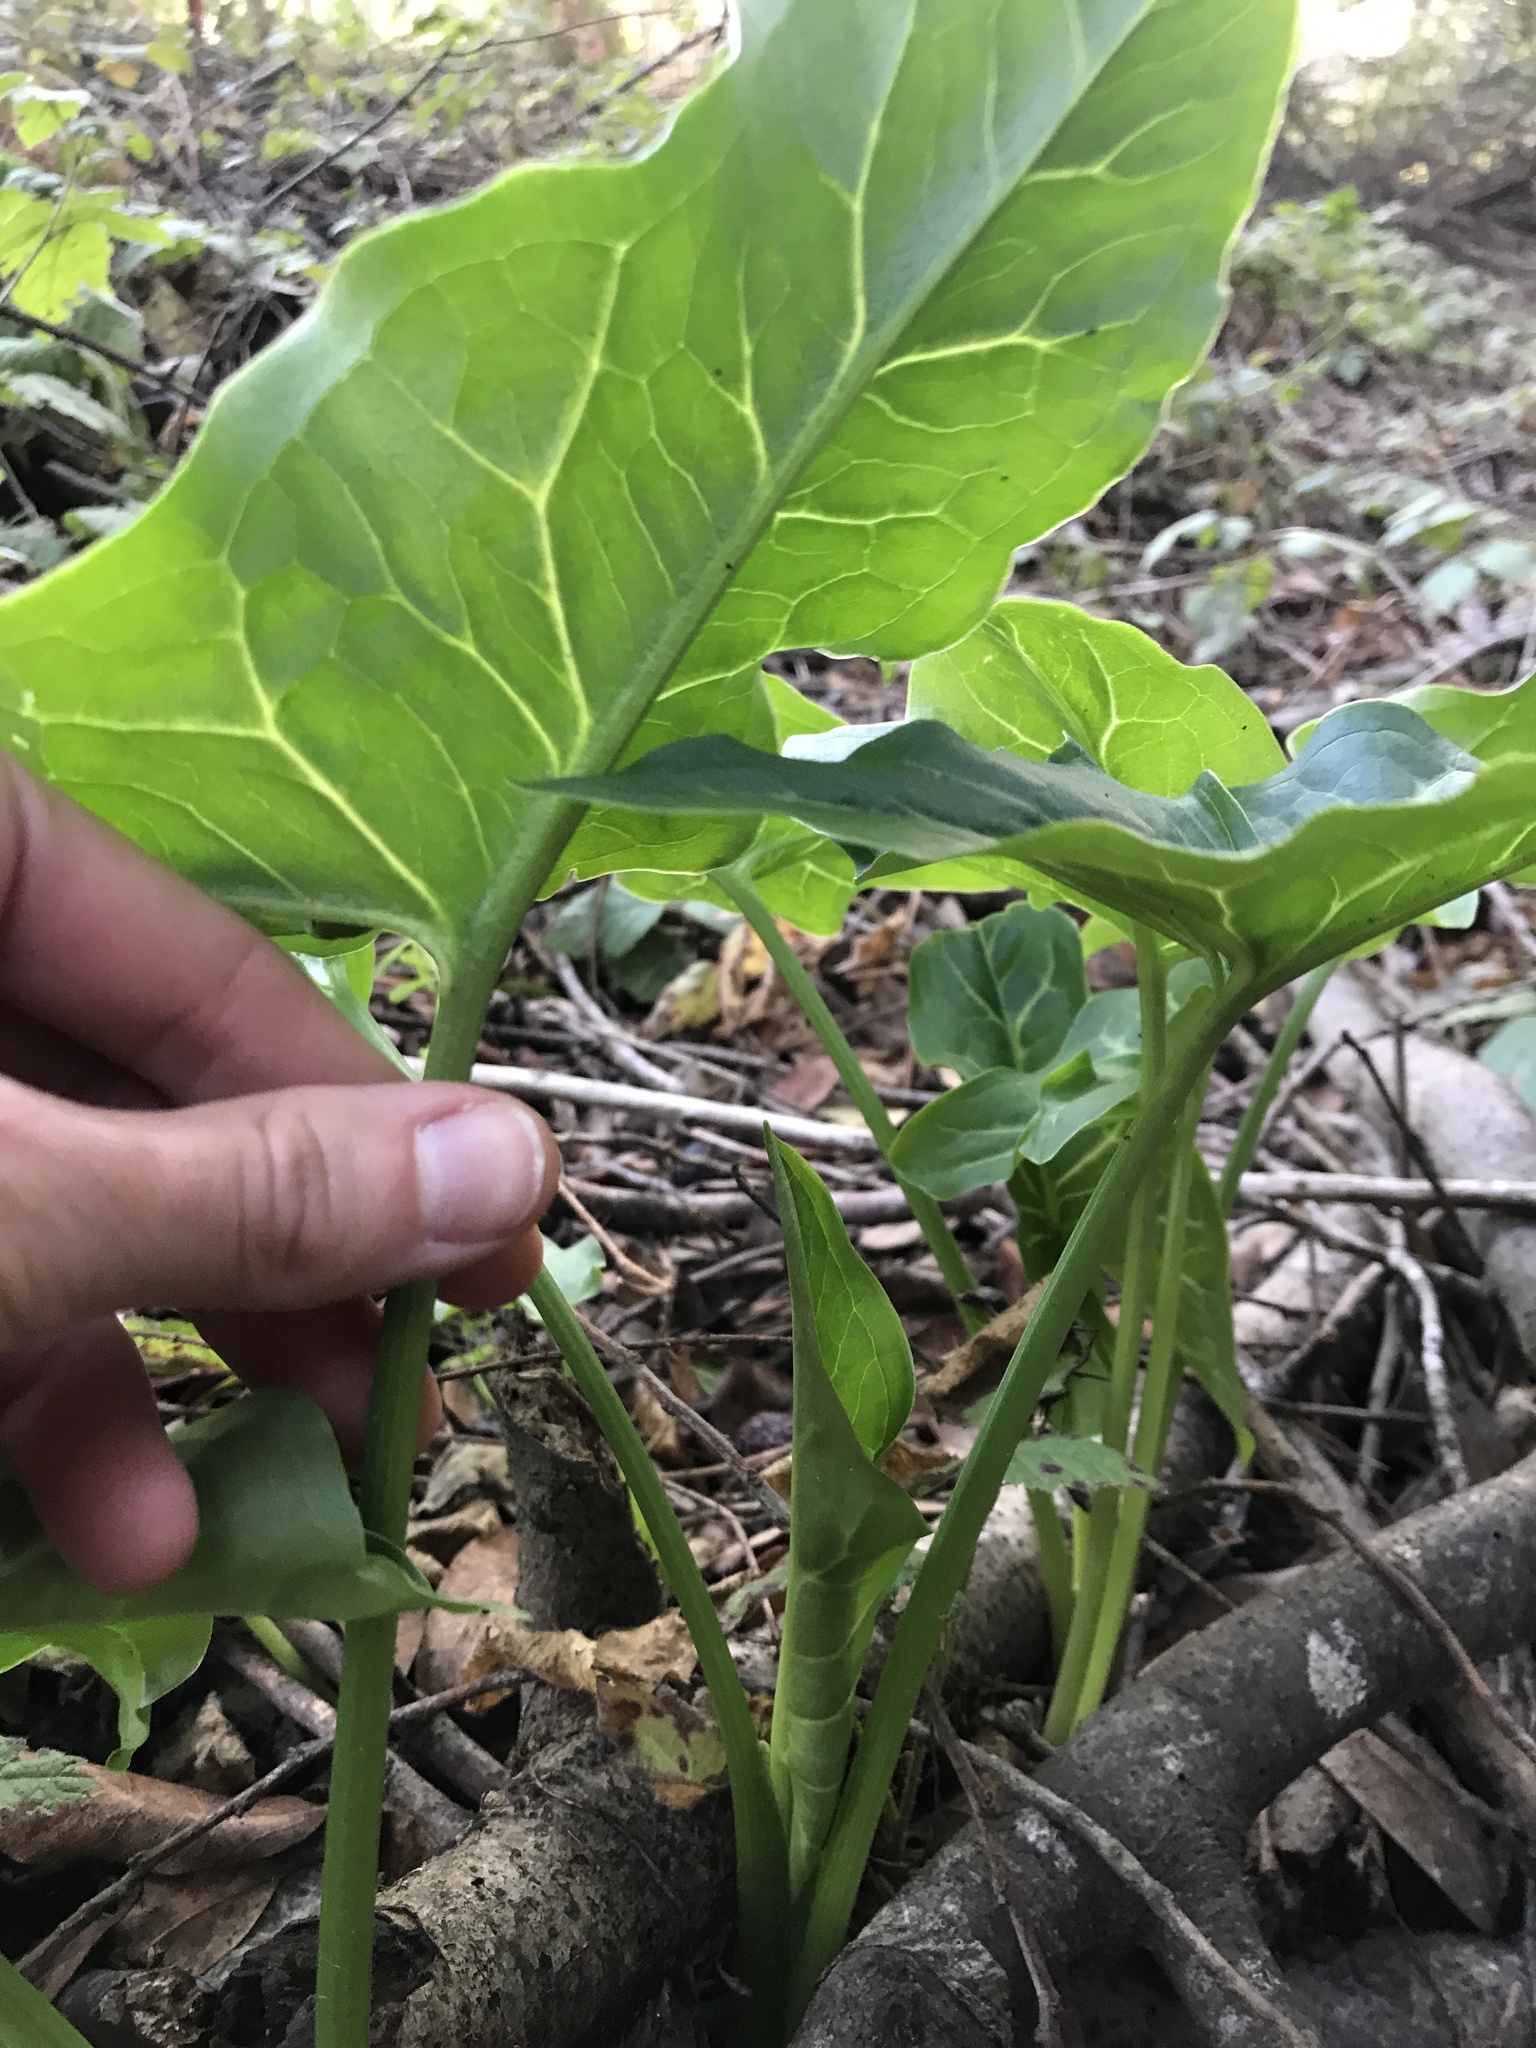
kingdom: Plantae
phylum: Tracheophyta
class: Liliopsida
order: Alismatales
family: Araceae
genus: Arum
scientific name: Arum italicum
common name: Italian lords-and-ladies
